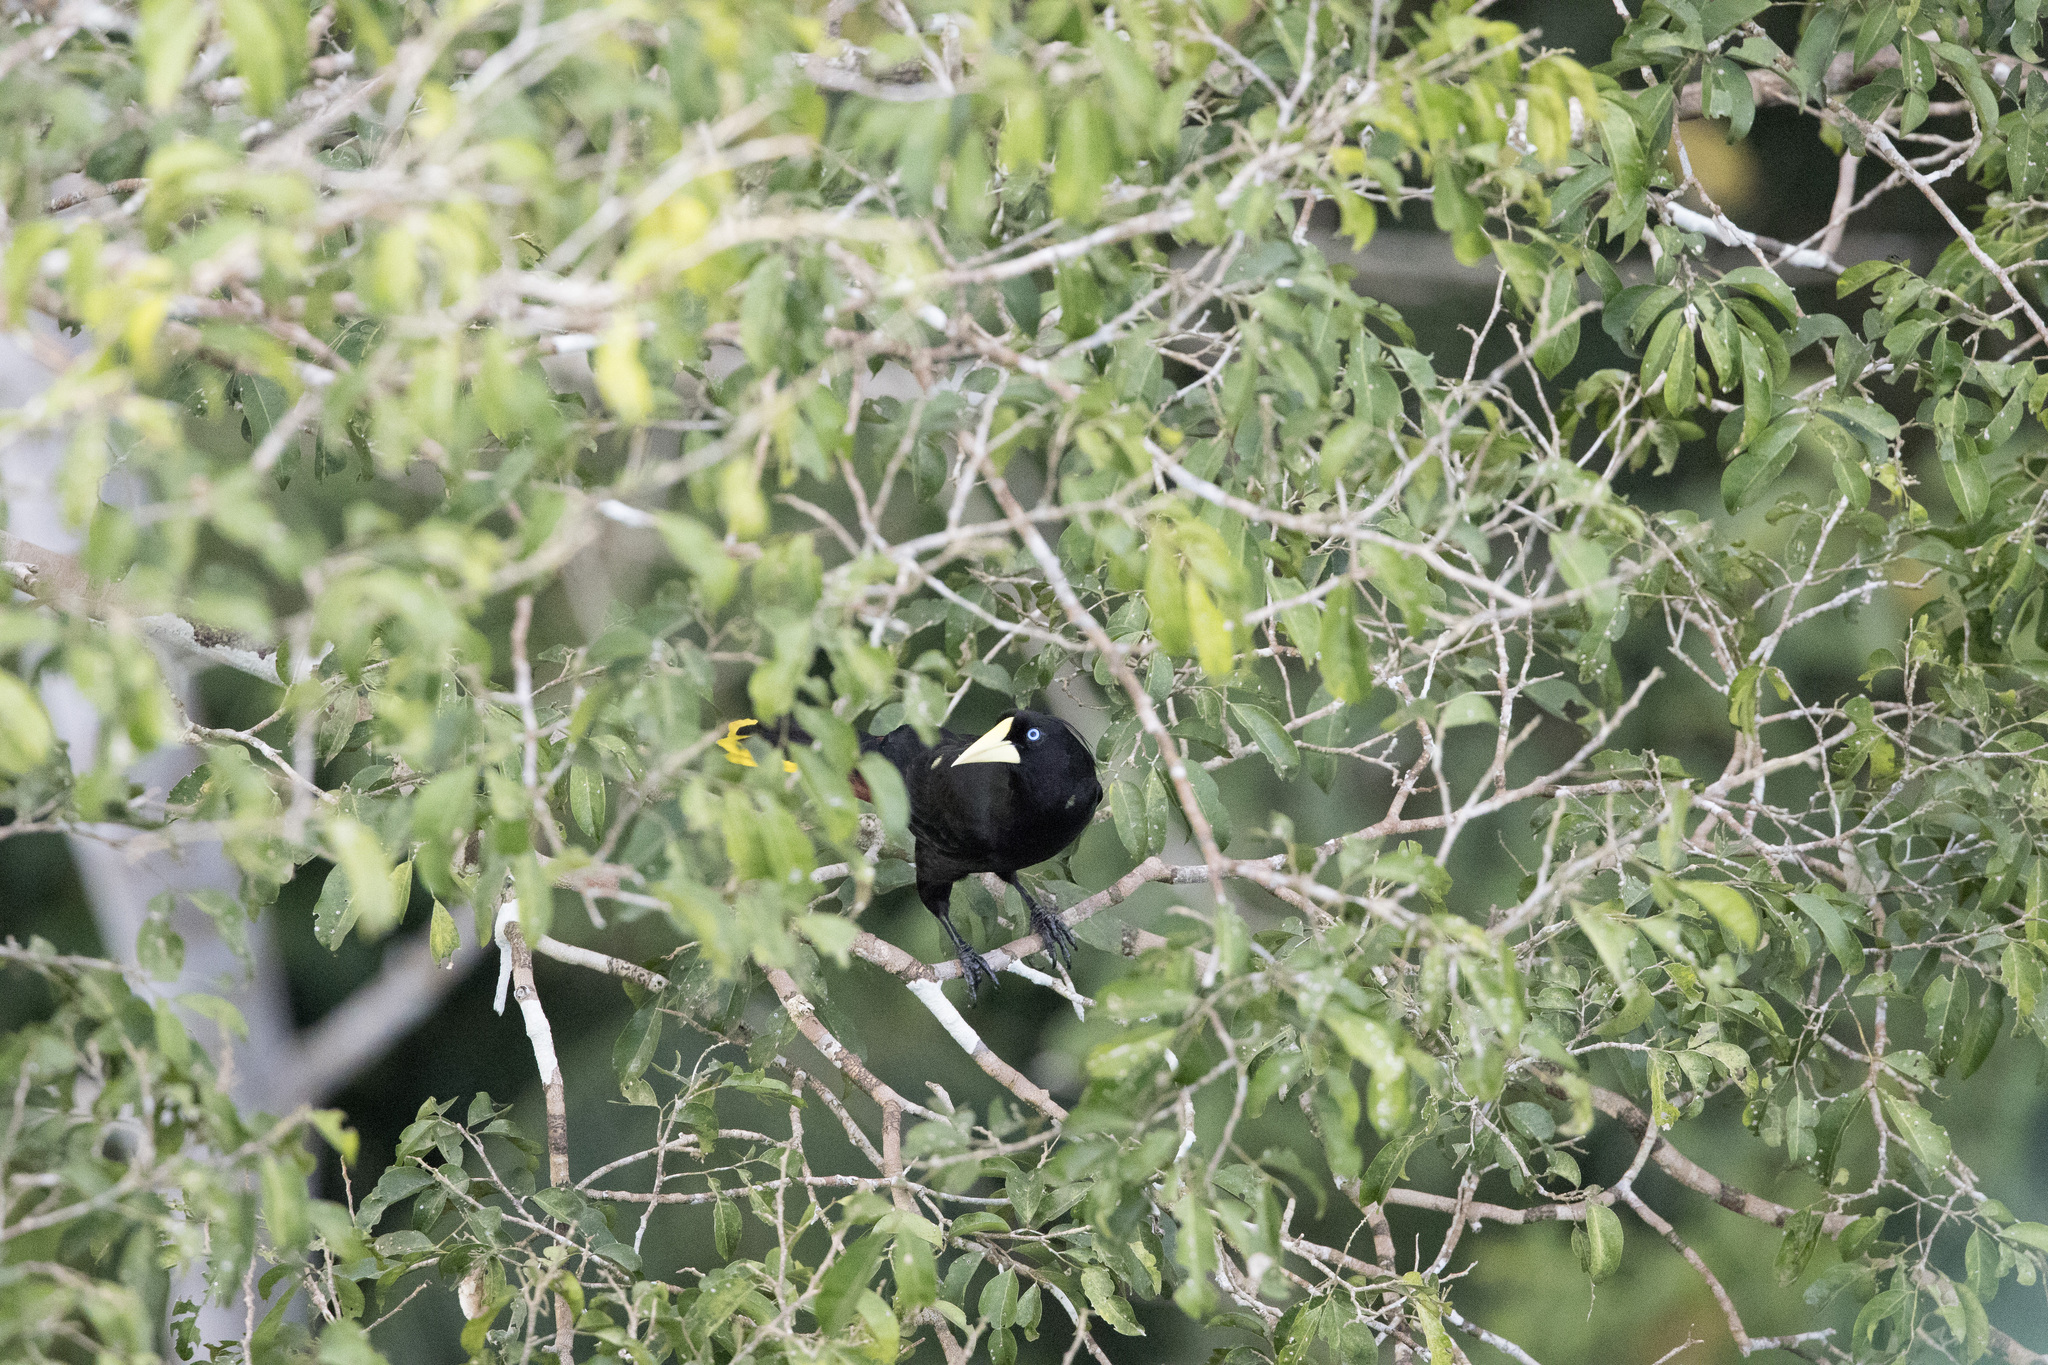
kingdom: Animalia
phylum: Chordata
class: Aves
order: Passeriformes
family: Icteridae
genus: Psarocolius
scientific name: Psarocolius decumanus
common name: Crested oropendola
